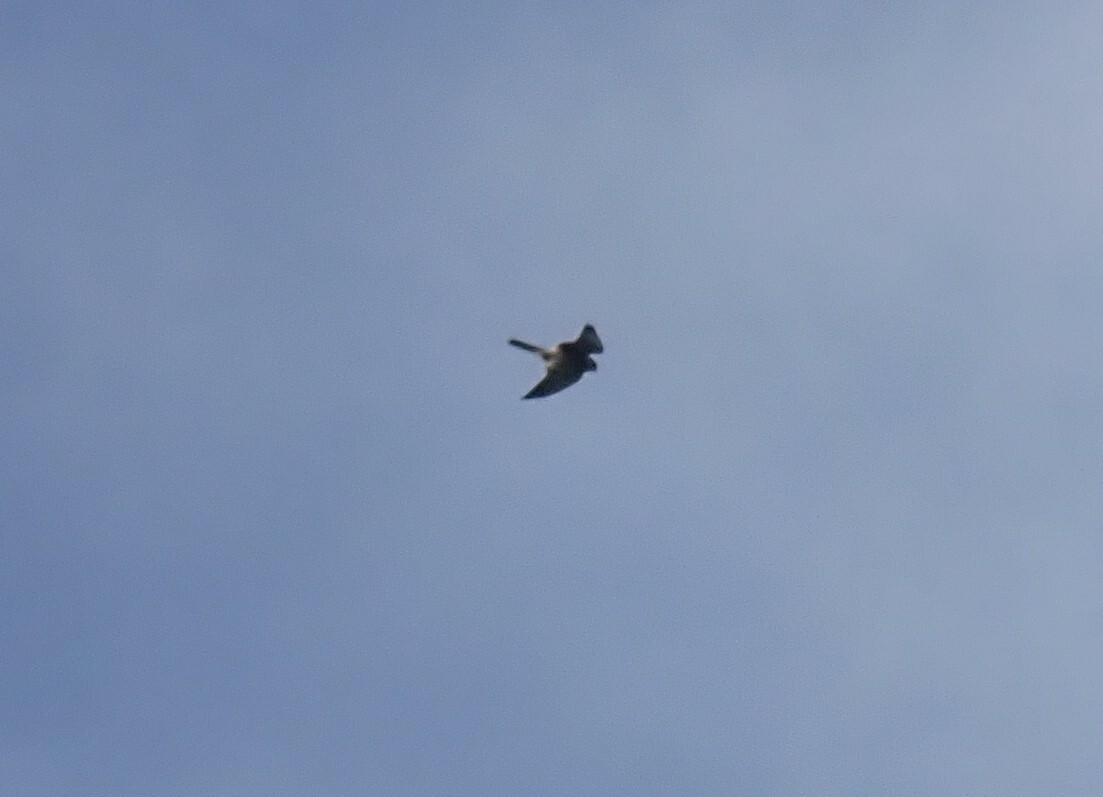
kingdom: Animalia
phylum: Chordata
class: Aves
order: Falconiformes
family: Falconidae
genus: Falco
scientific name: Falco tinnunculus
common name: Common kestrel
